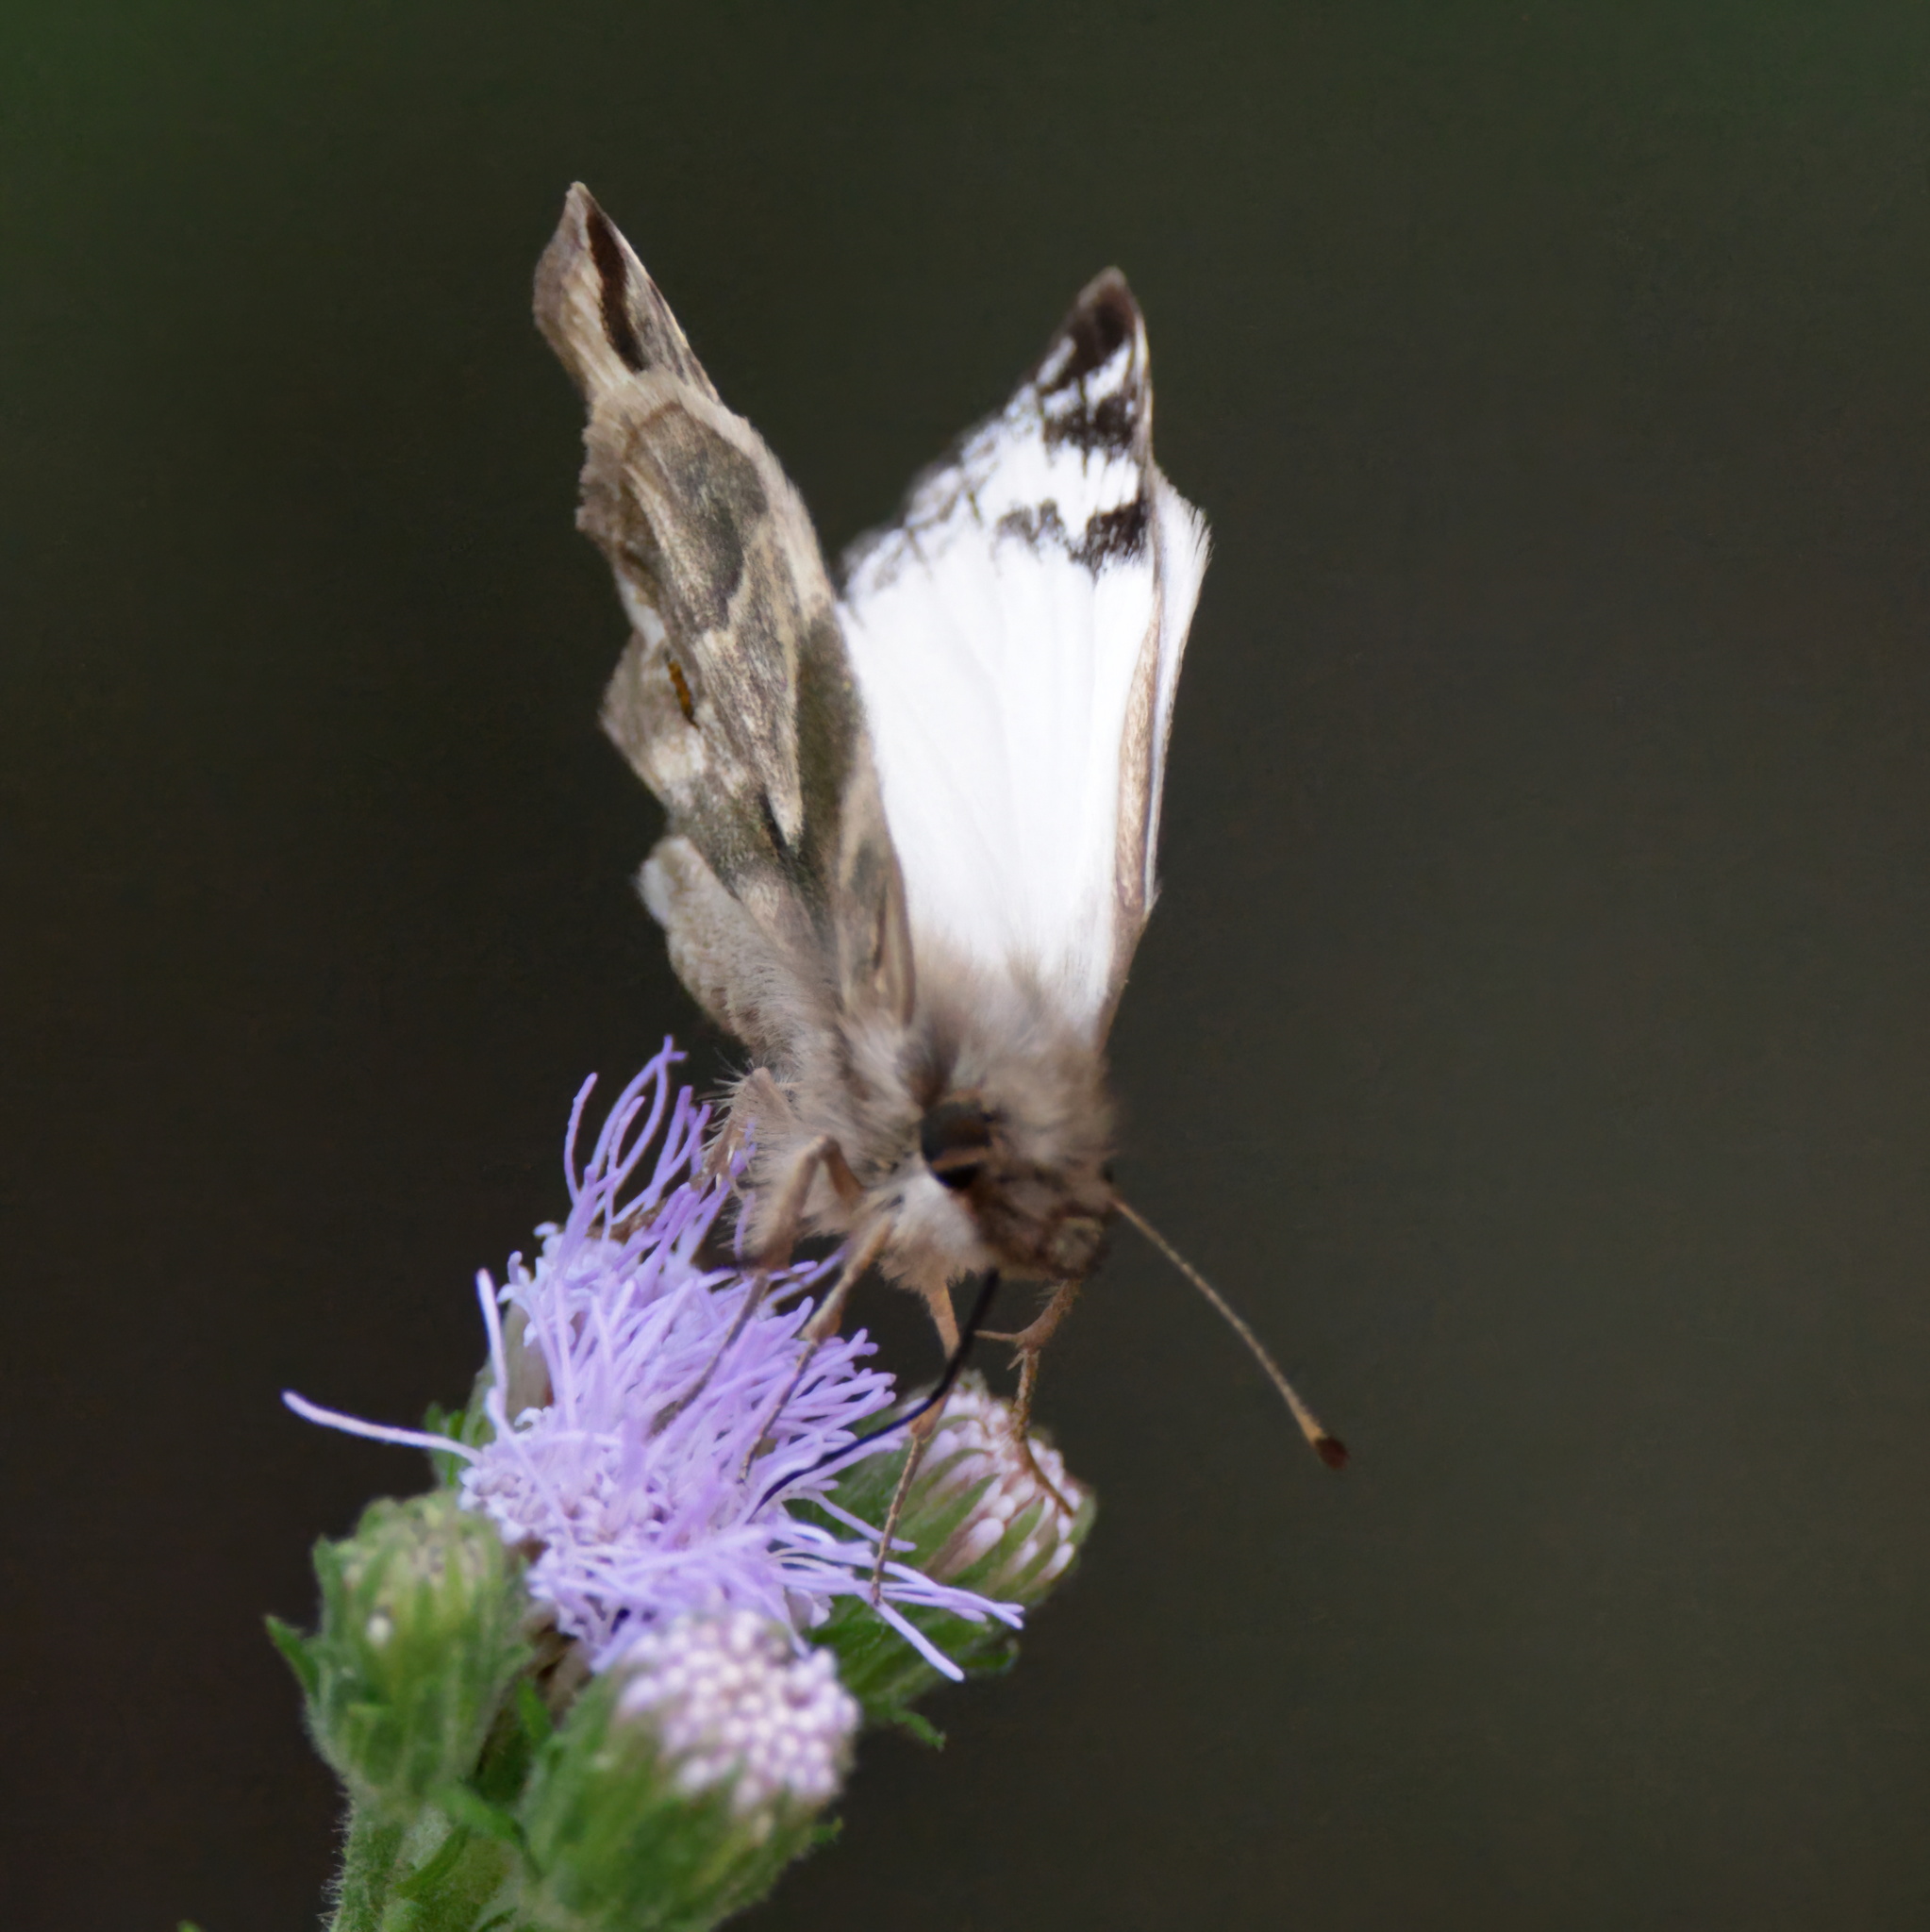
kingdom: Animalia
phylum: Arthropoda
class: Insecta
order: Lepidoptera
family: Hesperiidae
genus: Heliopetes
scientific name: Heliopetes laviana
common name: Laviana white-skipper
